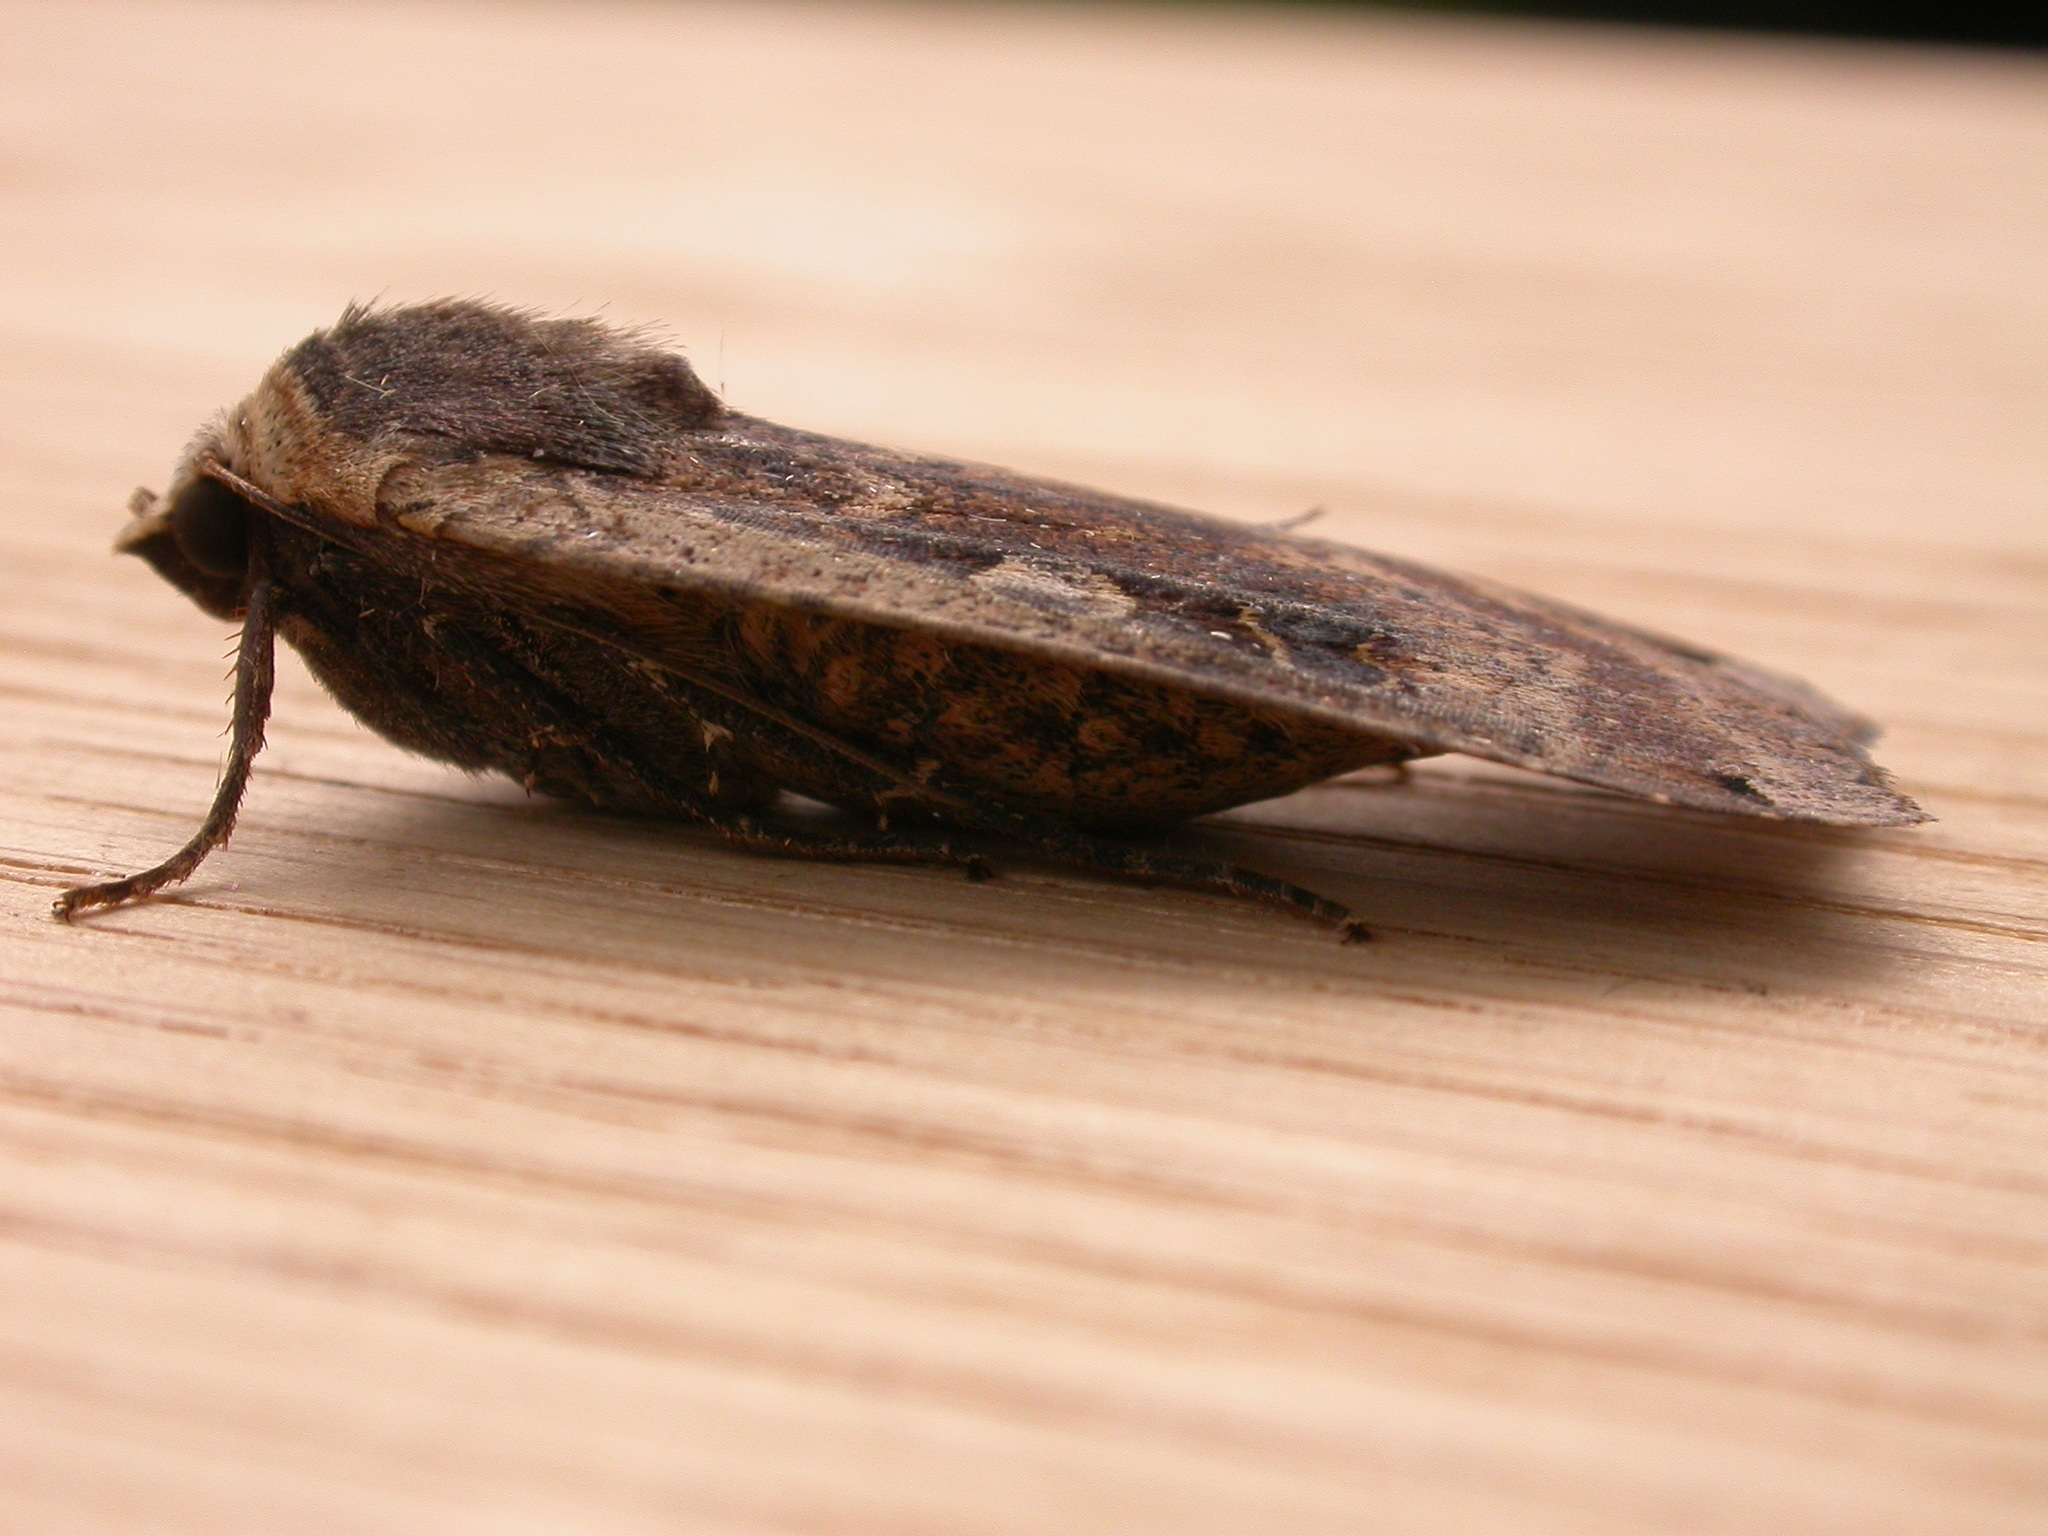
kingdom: Animalia
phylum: Arthropoda
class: Insecta
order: Lepidoptera
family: Noctuidae
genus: Noctua
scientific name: Noctua pronuba
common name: Large yellow underwing
